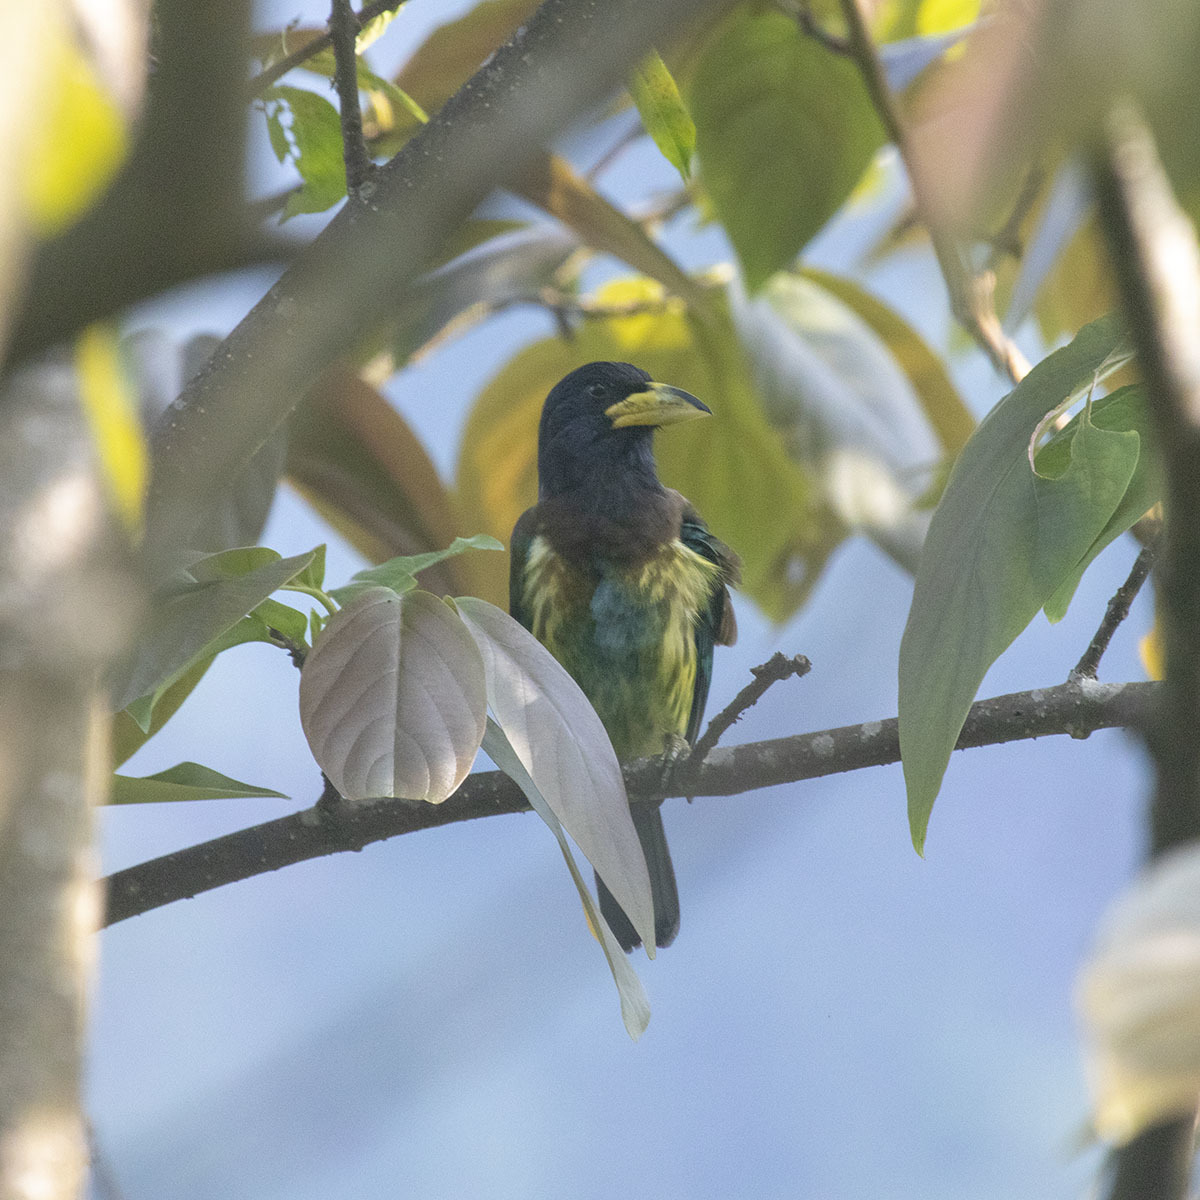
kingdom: Animalia
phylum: Chordata
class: Aves
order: Piciformes
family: Megalaimidae
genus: Psilopogon
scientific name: Psilopogon virens
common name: Great barbet
